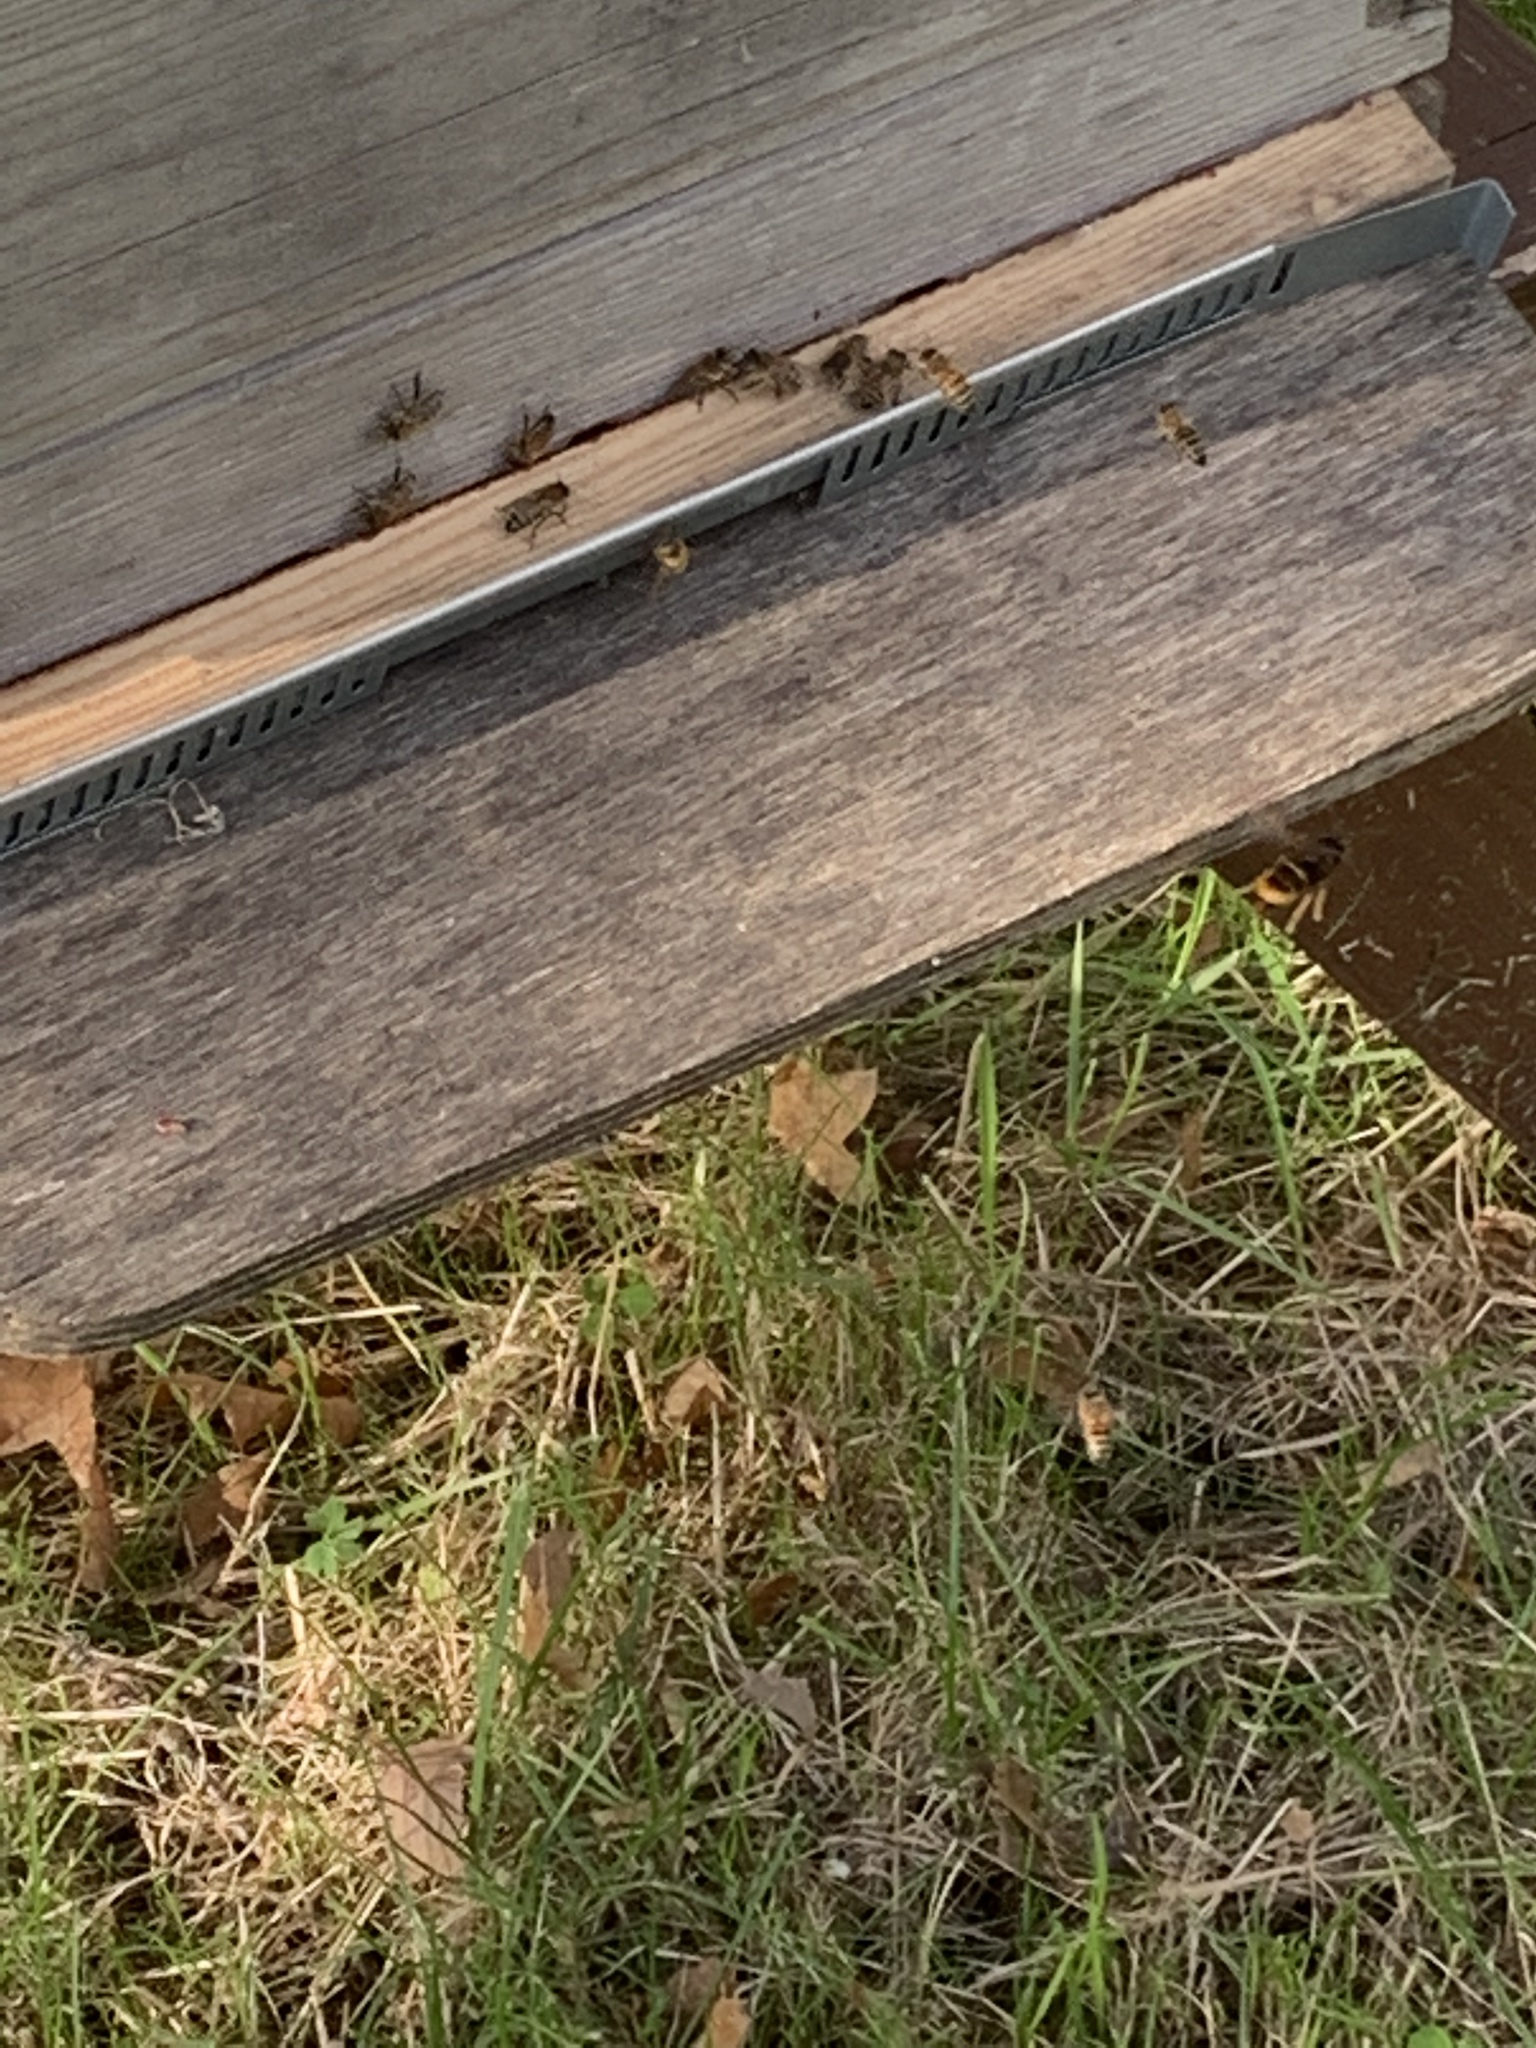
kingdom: Animalia
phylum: Arthropoda
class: Insecta
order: Hymenoptera
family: Vespidae
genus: Vespa
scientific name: Vespa velutina
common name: Asian hornet
